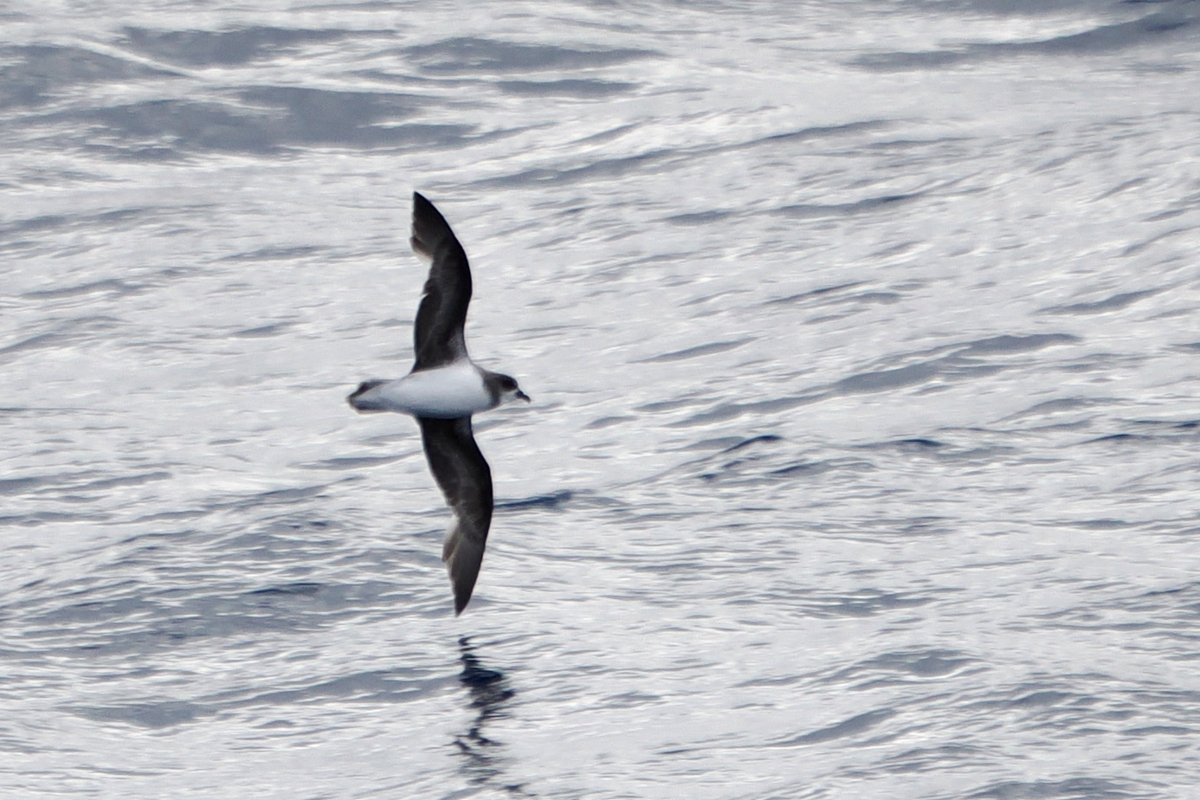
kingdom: Animalia
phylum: Chordata
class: Aves
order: Procellariiformes
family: Procellariidae
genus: Pterodroma
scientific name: Pterodroma mollis
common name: Soft-plumaged petrel
